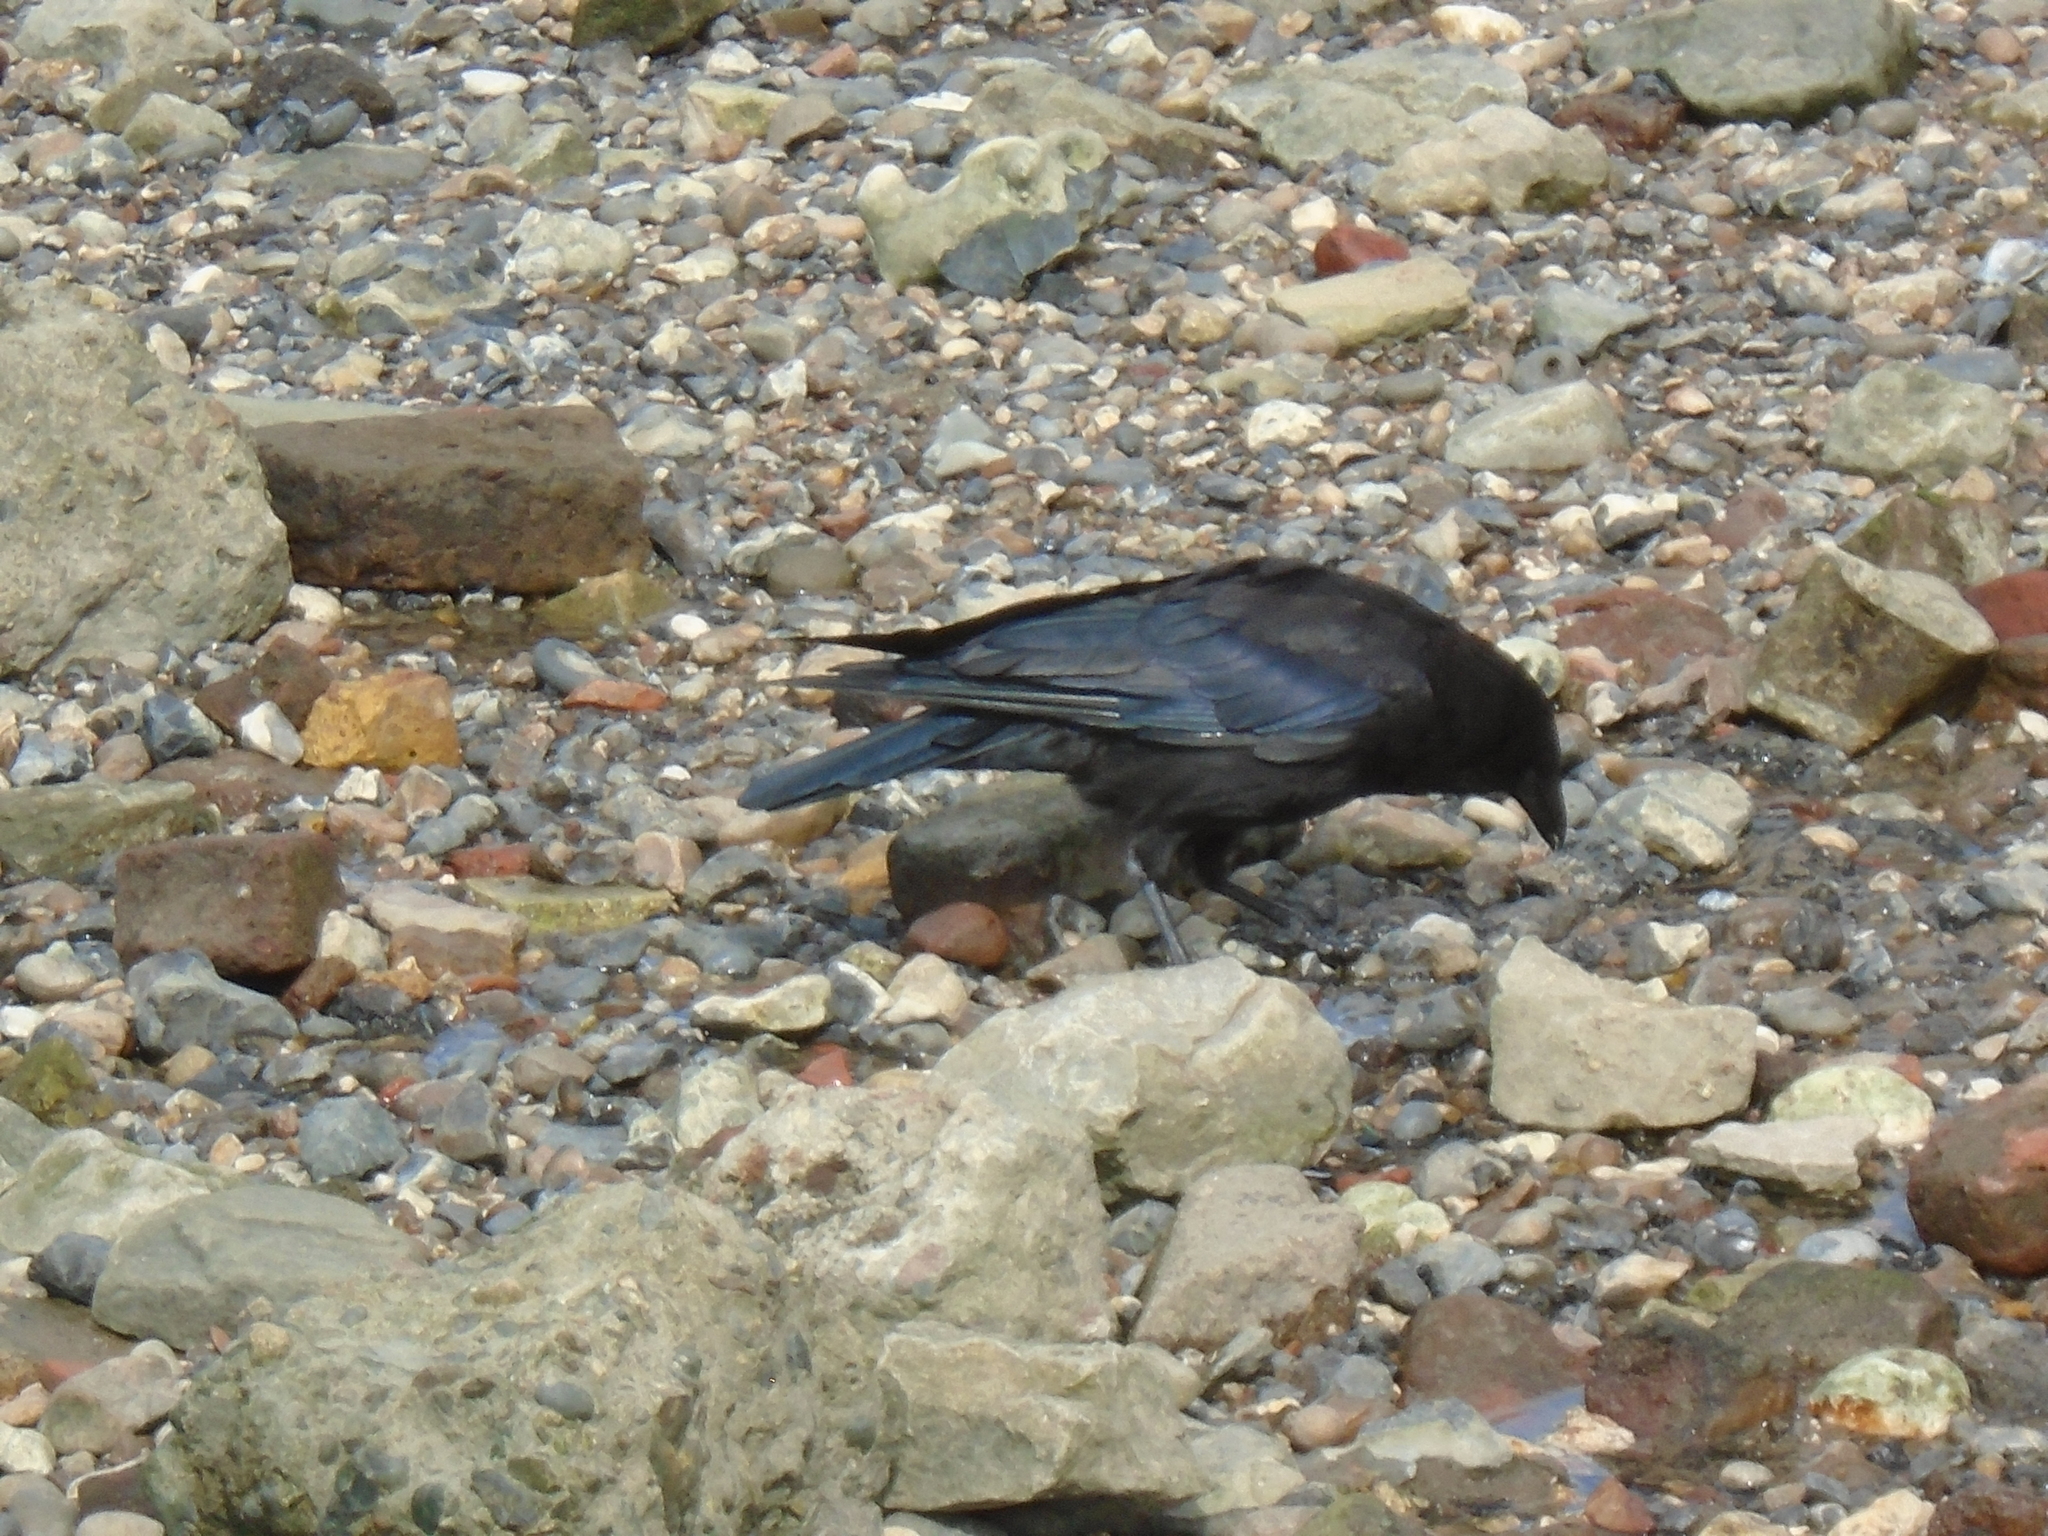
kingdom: Animalia
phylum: Chordata
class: Aves
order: Passeriformes
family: Corvidae
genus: Corvus
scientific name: Corvus corone
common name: Carrion crow
